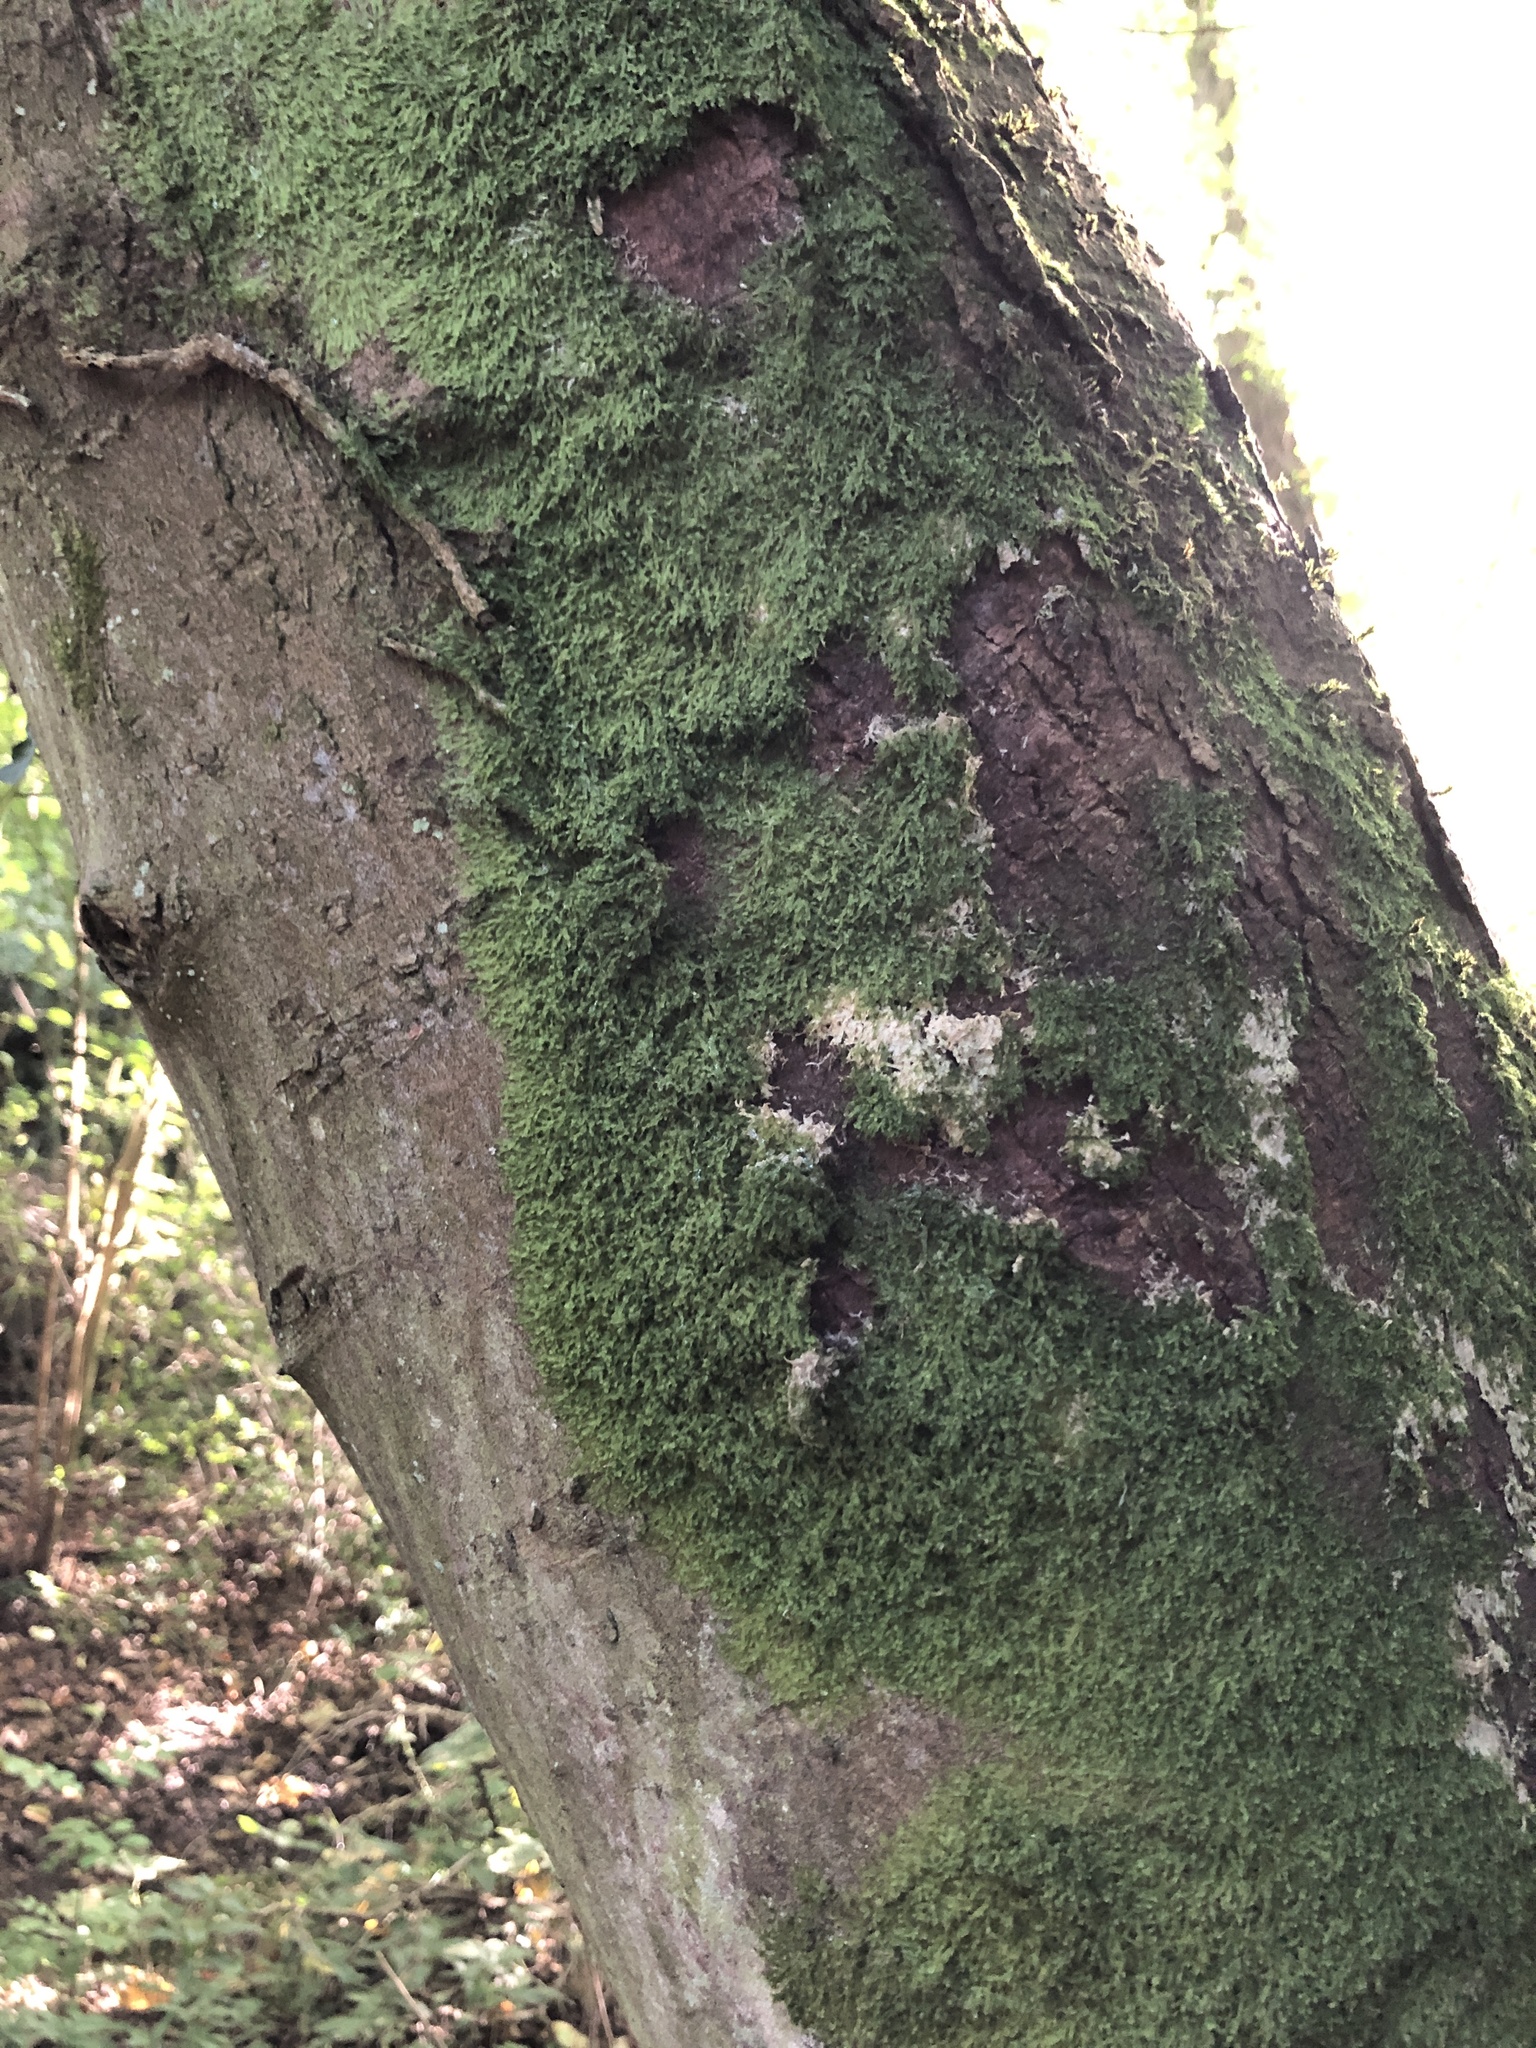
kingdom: Plantae
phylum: Marchantiophyta
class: Jungermanniopsida
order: Metzgeriales
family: Metzgeriaceae
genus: Metzgeria
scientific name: Metzgeria furcata
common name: Forked veilwort
